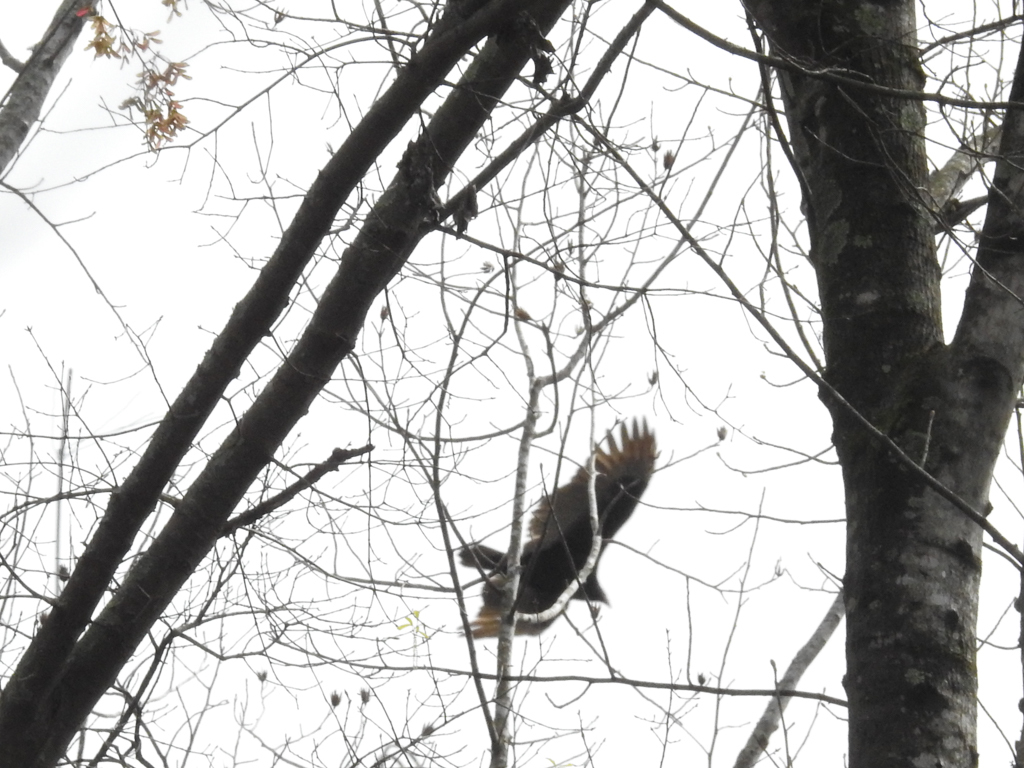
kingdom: Animalia
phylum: Chordata
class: Aves
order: Accipitriformes
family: Cathartidae
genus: Cathartes
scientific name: Cathartes aura
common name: Turkey vulture
